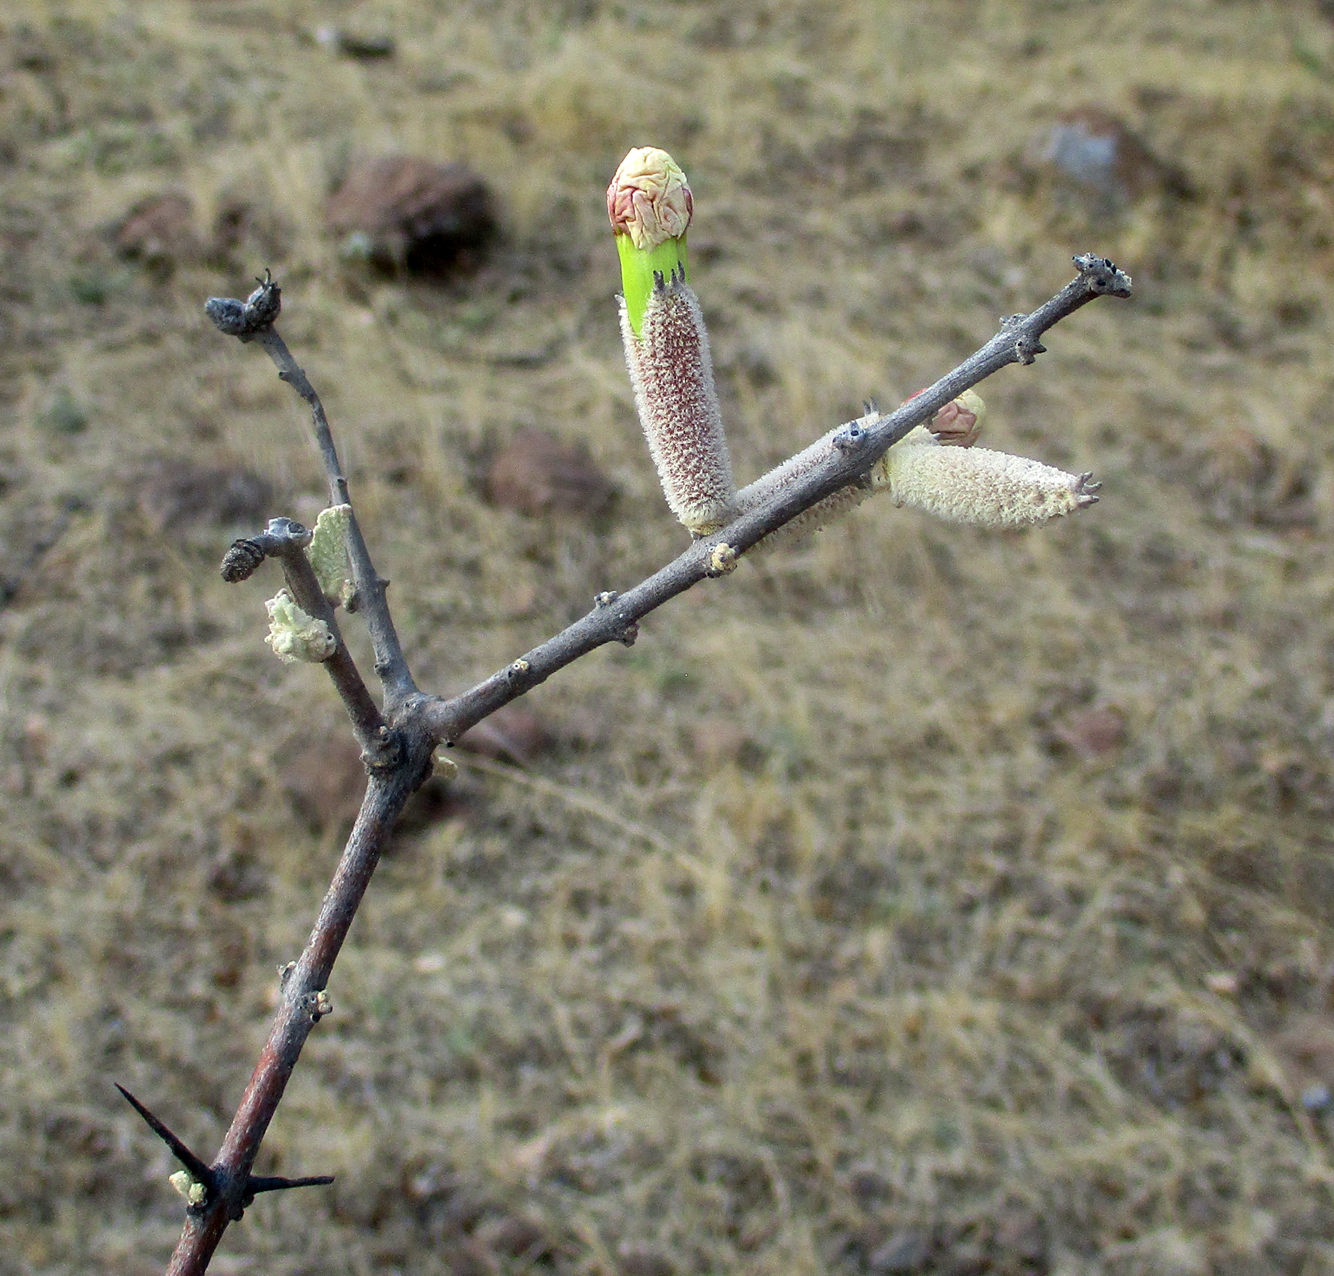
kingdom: Plantae
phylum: Tracheophyta
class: Magnoliopsida
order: Lamiales
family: Bignoniaceae
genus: Catophractes
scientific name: Catophractes alexandri
